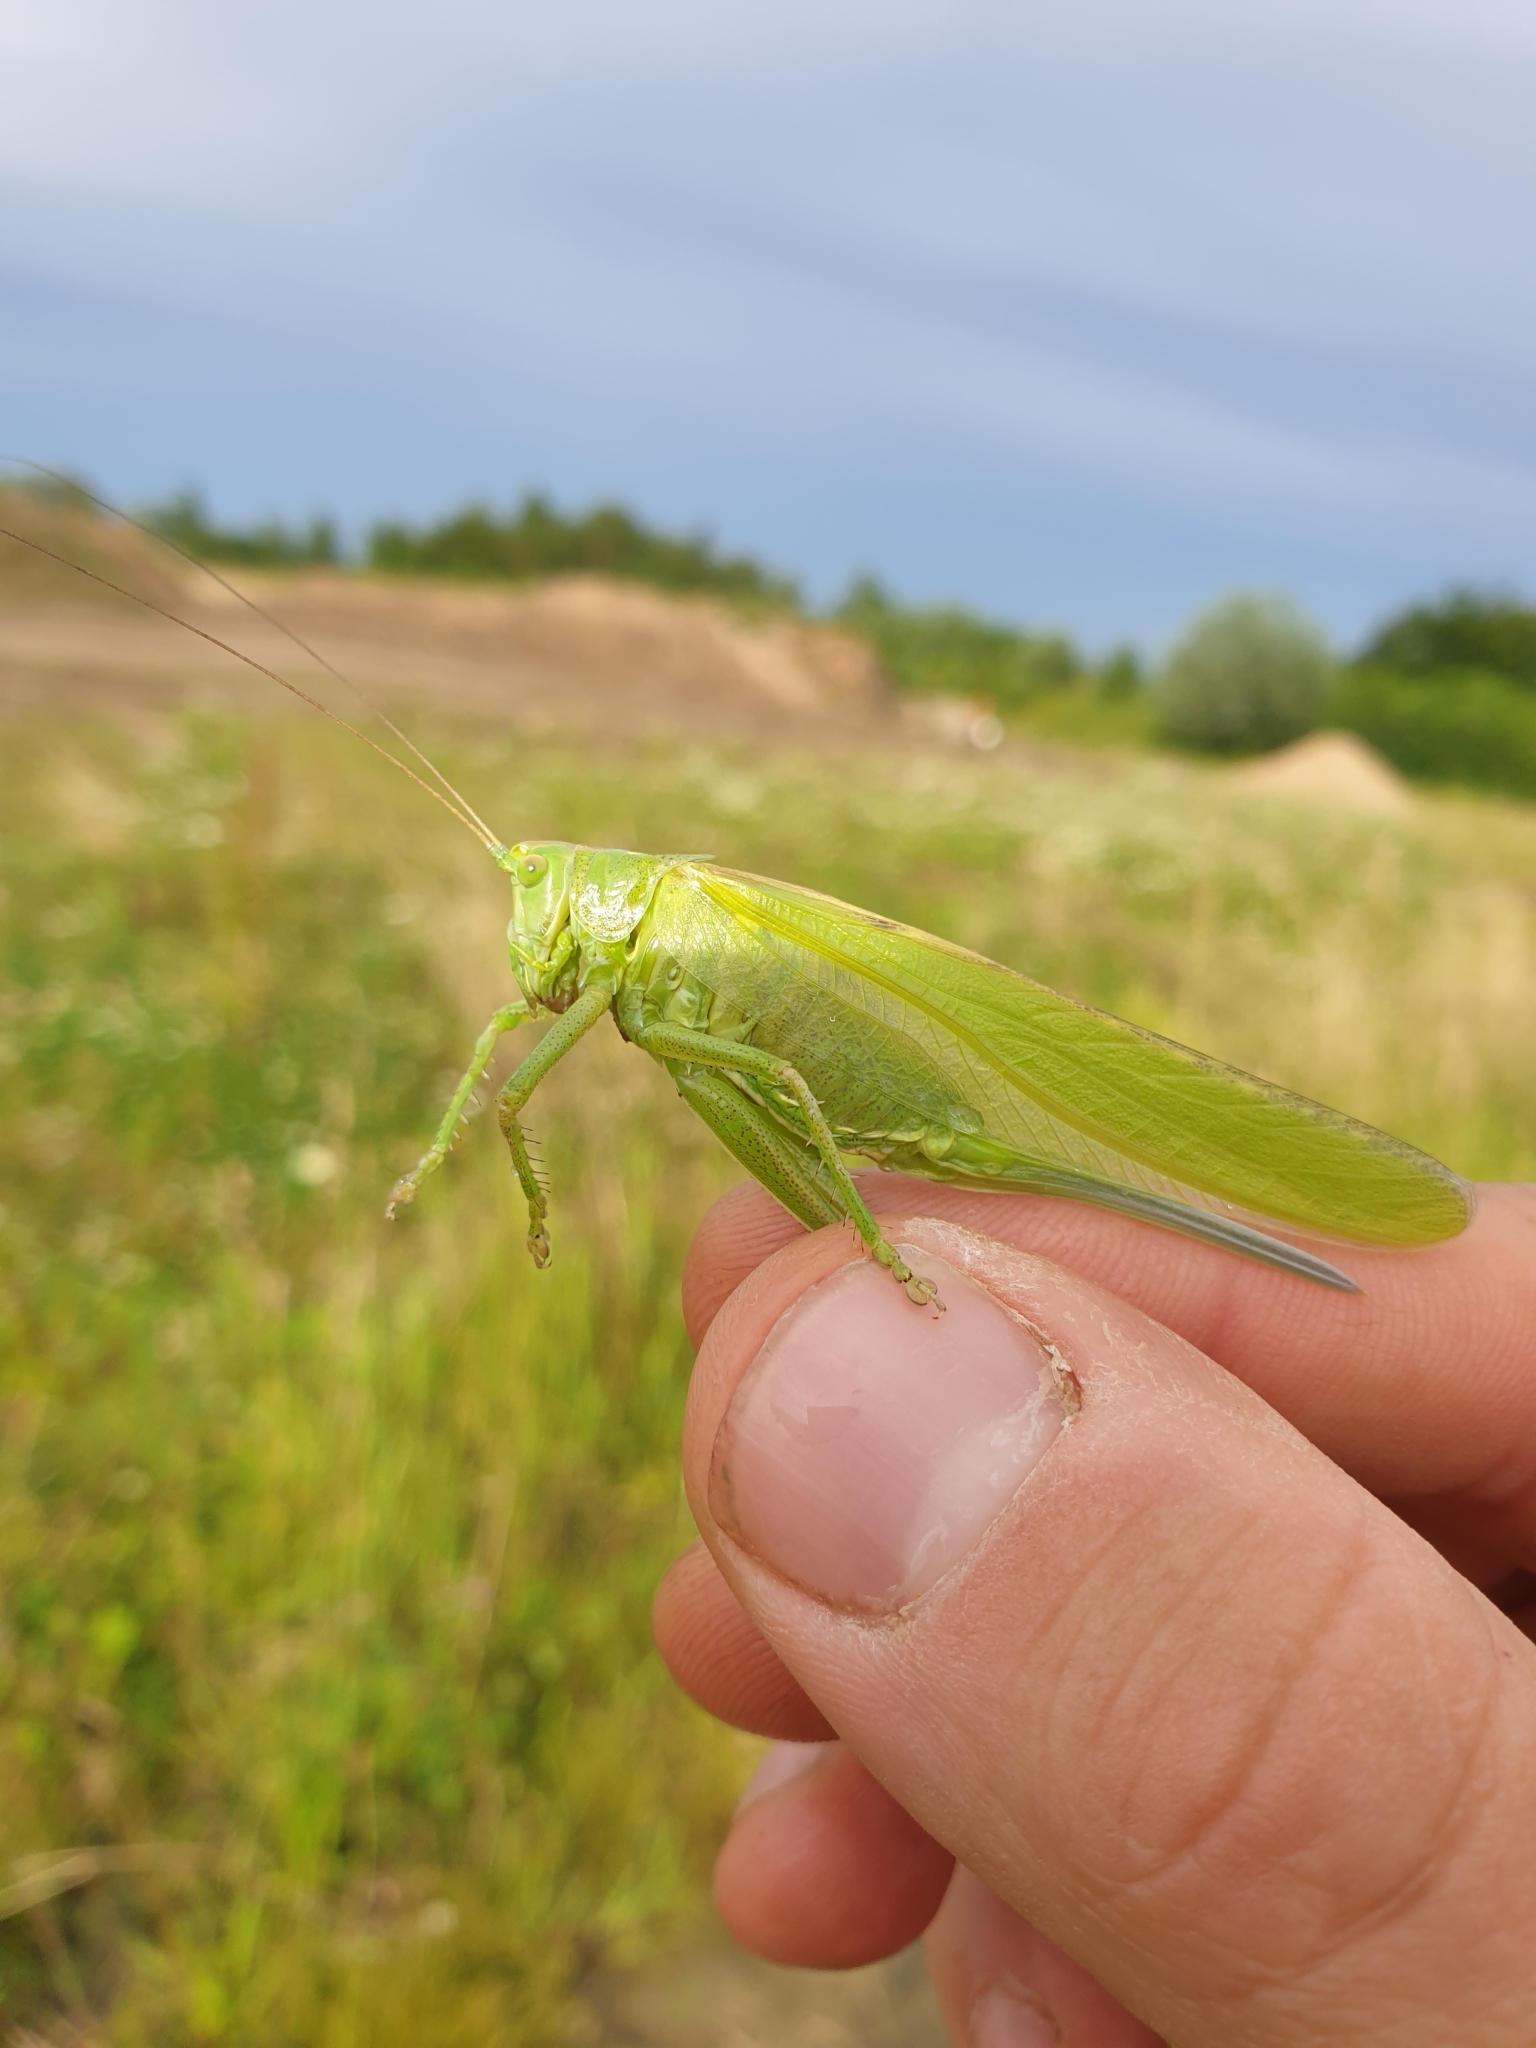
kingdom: Animalia
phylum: Arthropoda
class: Insecta
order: Orthoptera
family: Tettigoniidae
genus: Tettigonia
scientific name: Tettigonia viridissima
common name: Great green bush-cricket
